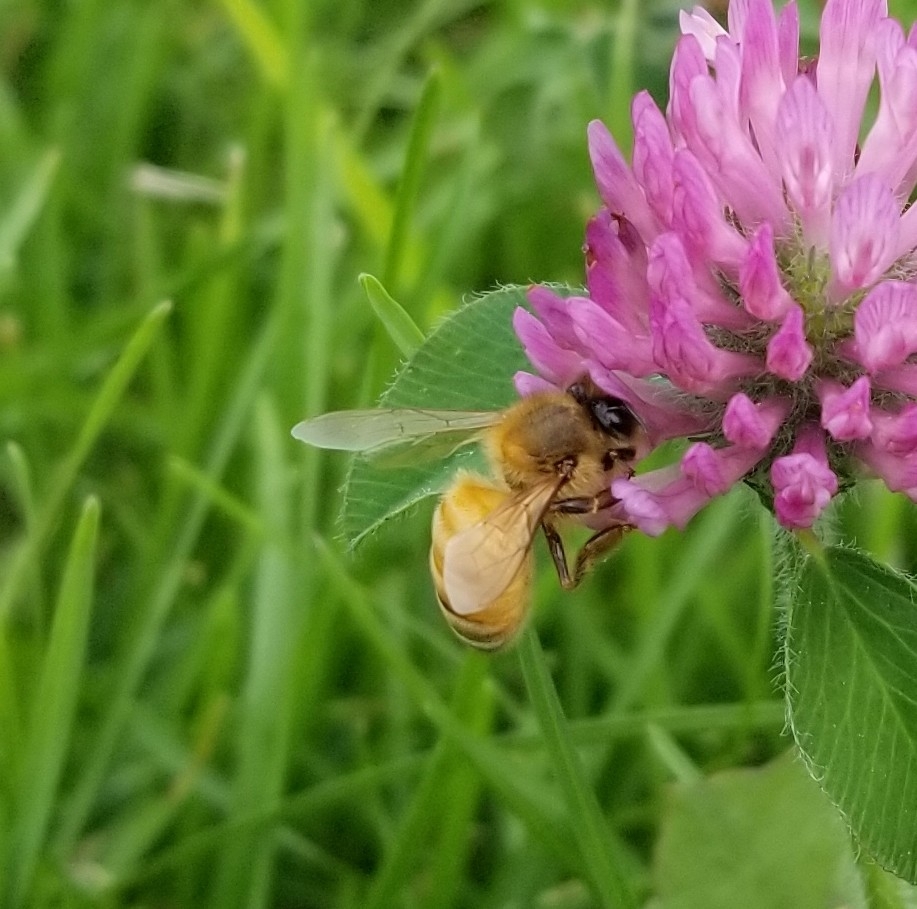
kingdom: Animalia
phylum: Arthropoda
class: Insecta
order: Hymenoptera
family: Apidae
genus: Apis
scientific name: Apis mellifera
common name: Honey bee
